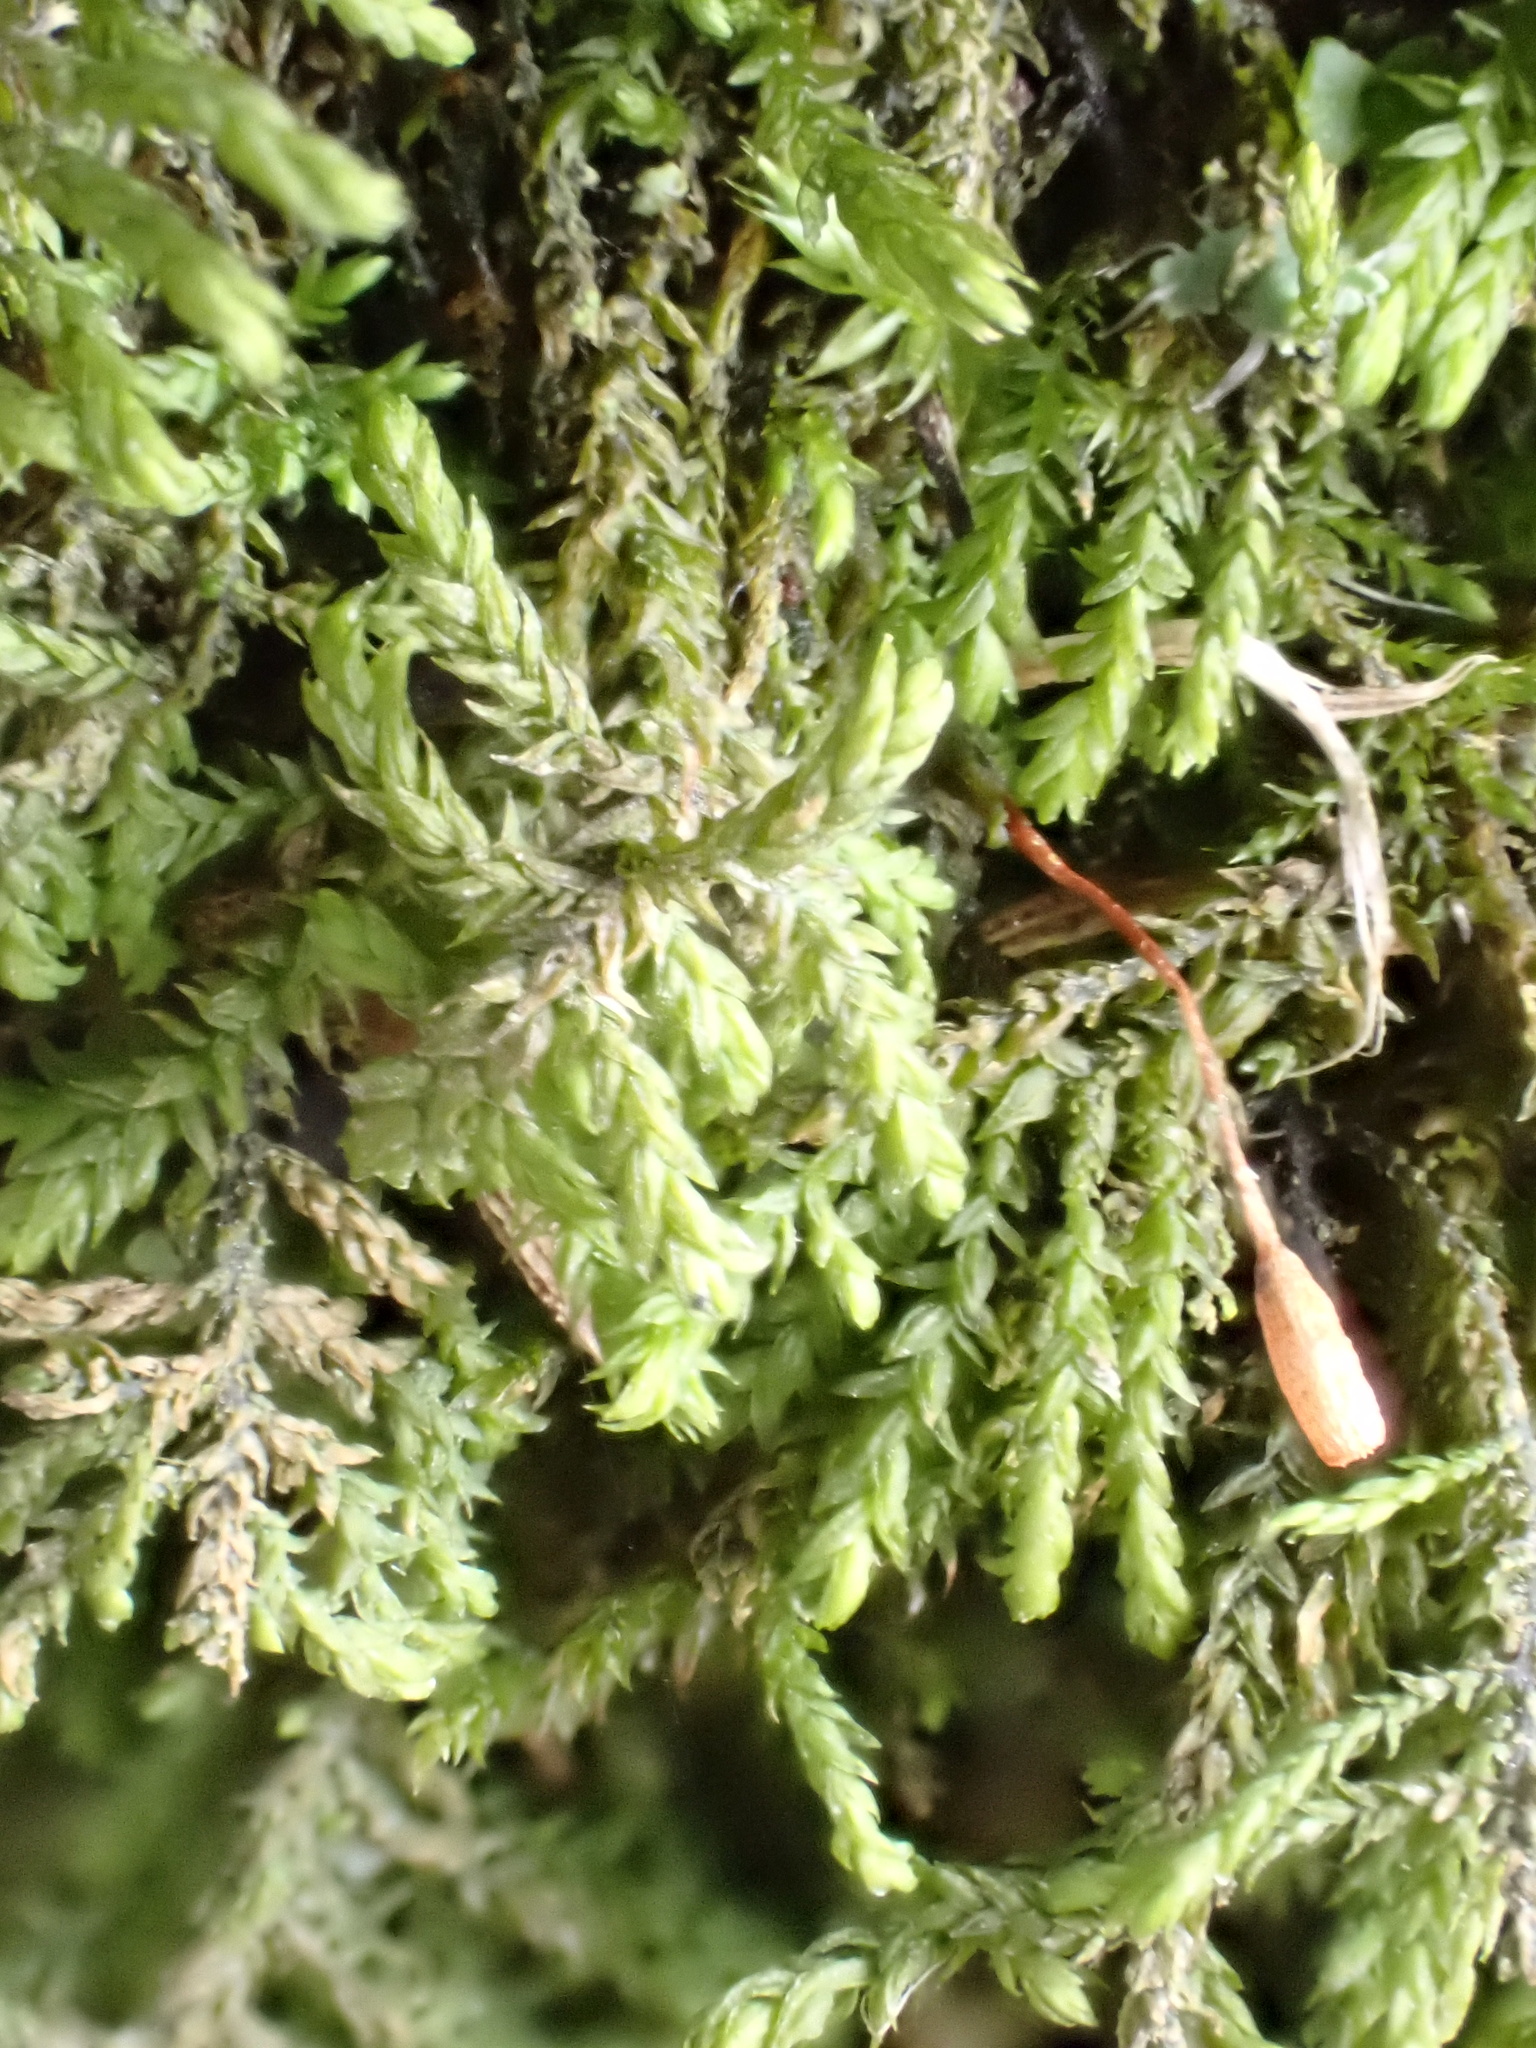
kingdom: Plantae
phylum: Bryophyta
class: Bryopsida
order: Hypnales
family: Leskeaceae
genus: Leskea
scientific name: Leskea polycarpa
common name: Many-fruited leske's moss
